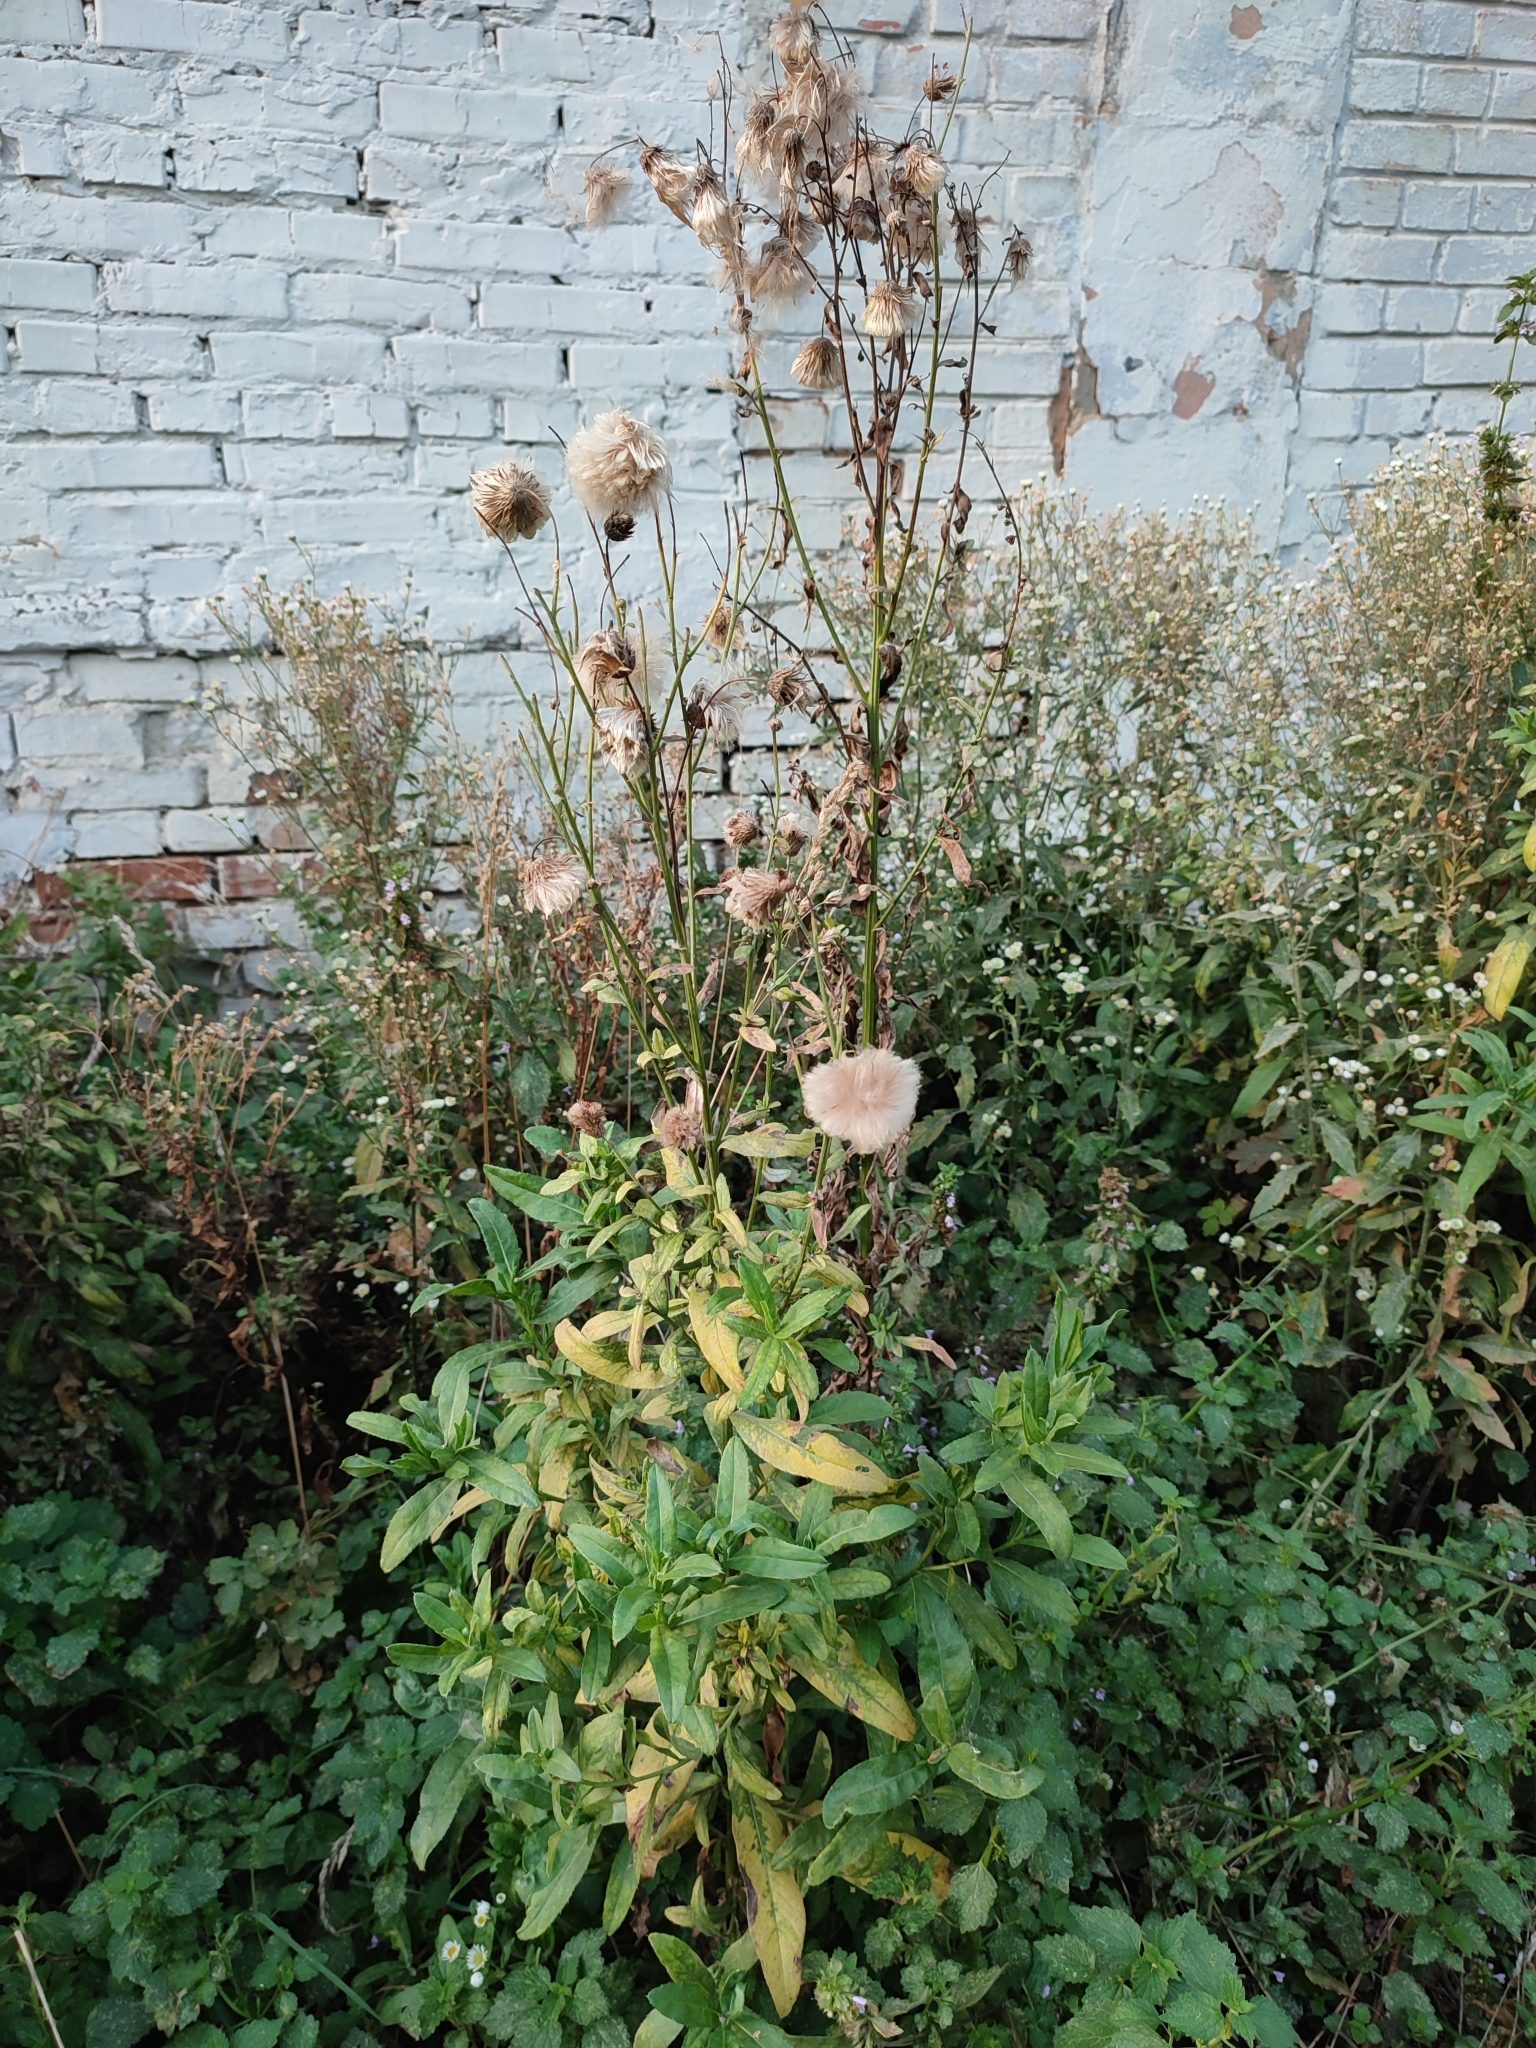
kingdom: Plantae
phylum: Tracheophyta
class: Magnoliopsida
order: Asterales
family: Asteraceae
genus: Cirsium
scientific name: Cirsium arvense
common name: Creeping thistle
